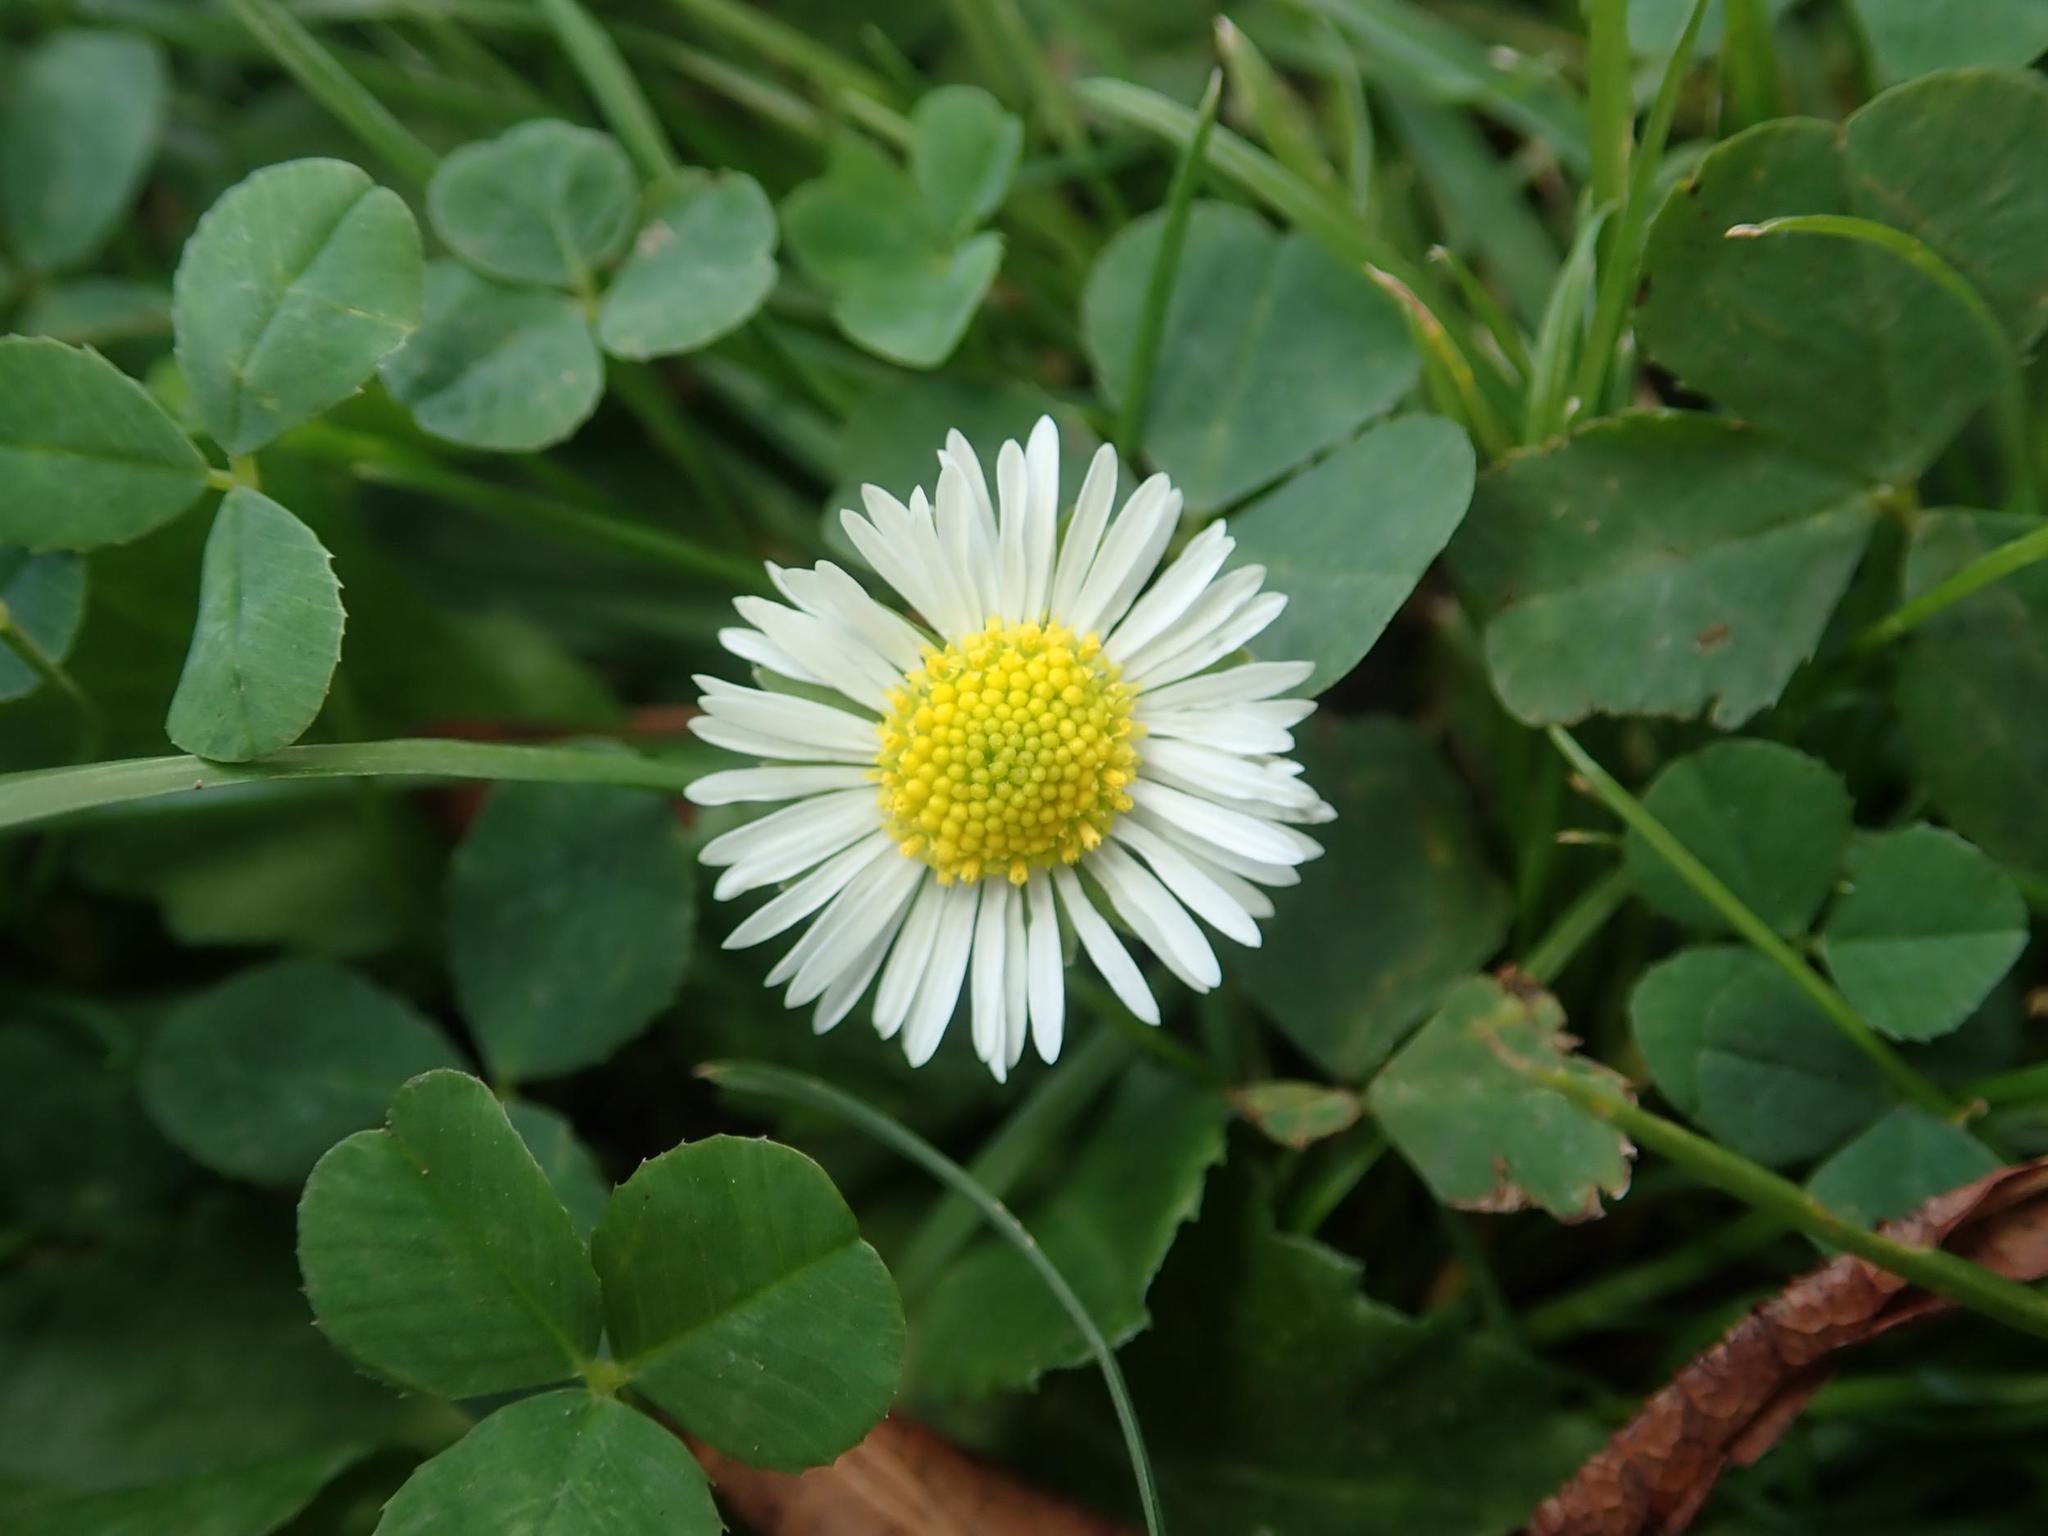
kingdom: Plantae
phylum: Tracheophyta
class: Magnoliopsida
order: Asterales
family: Asteraceae
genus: Bellis
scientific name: Bellis perennis
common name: Lawndaisy
